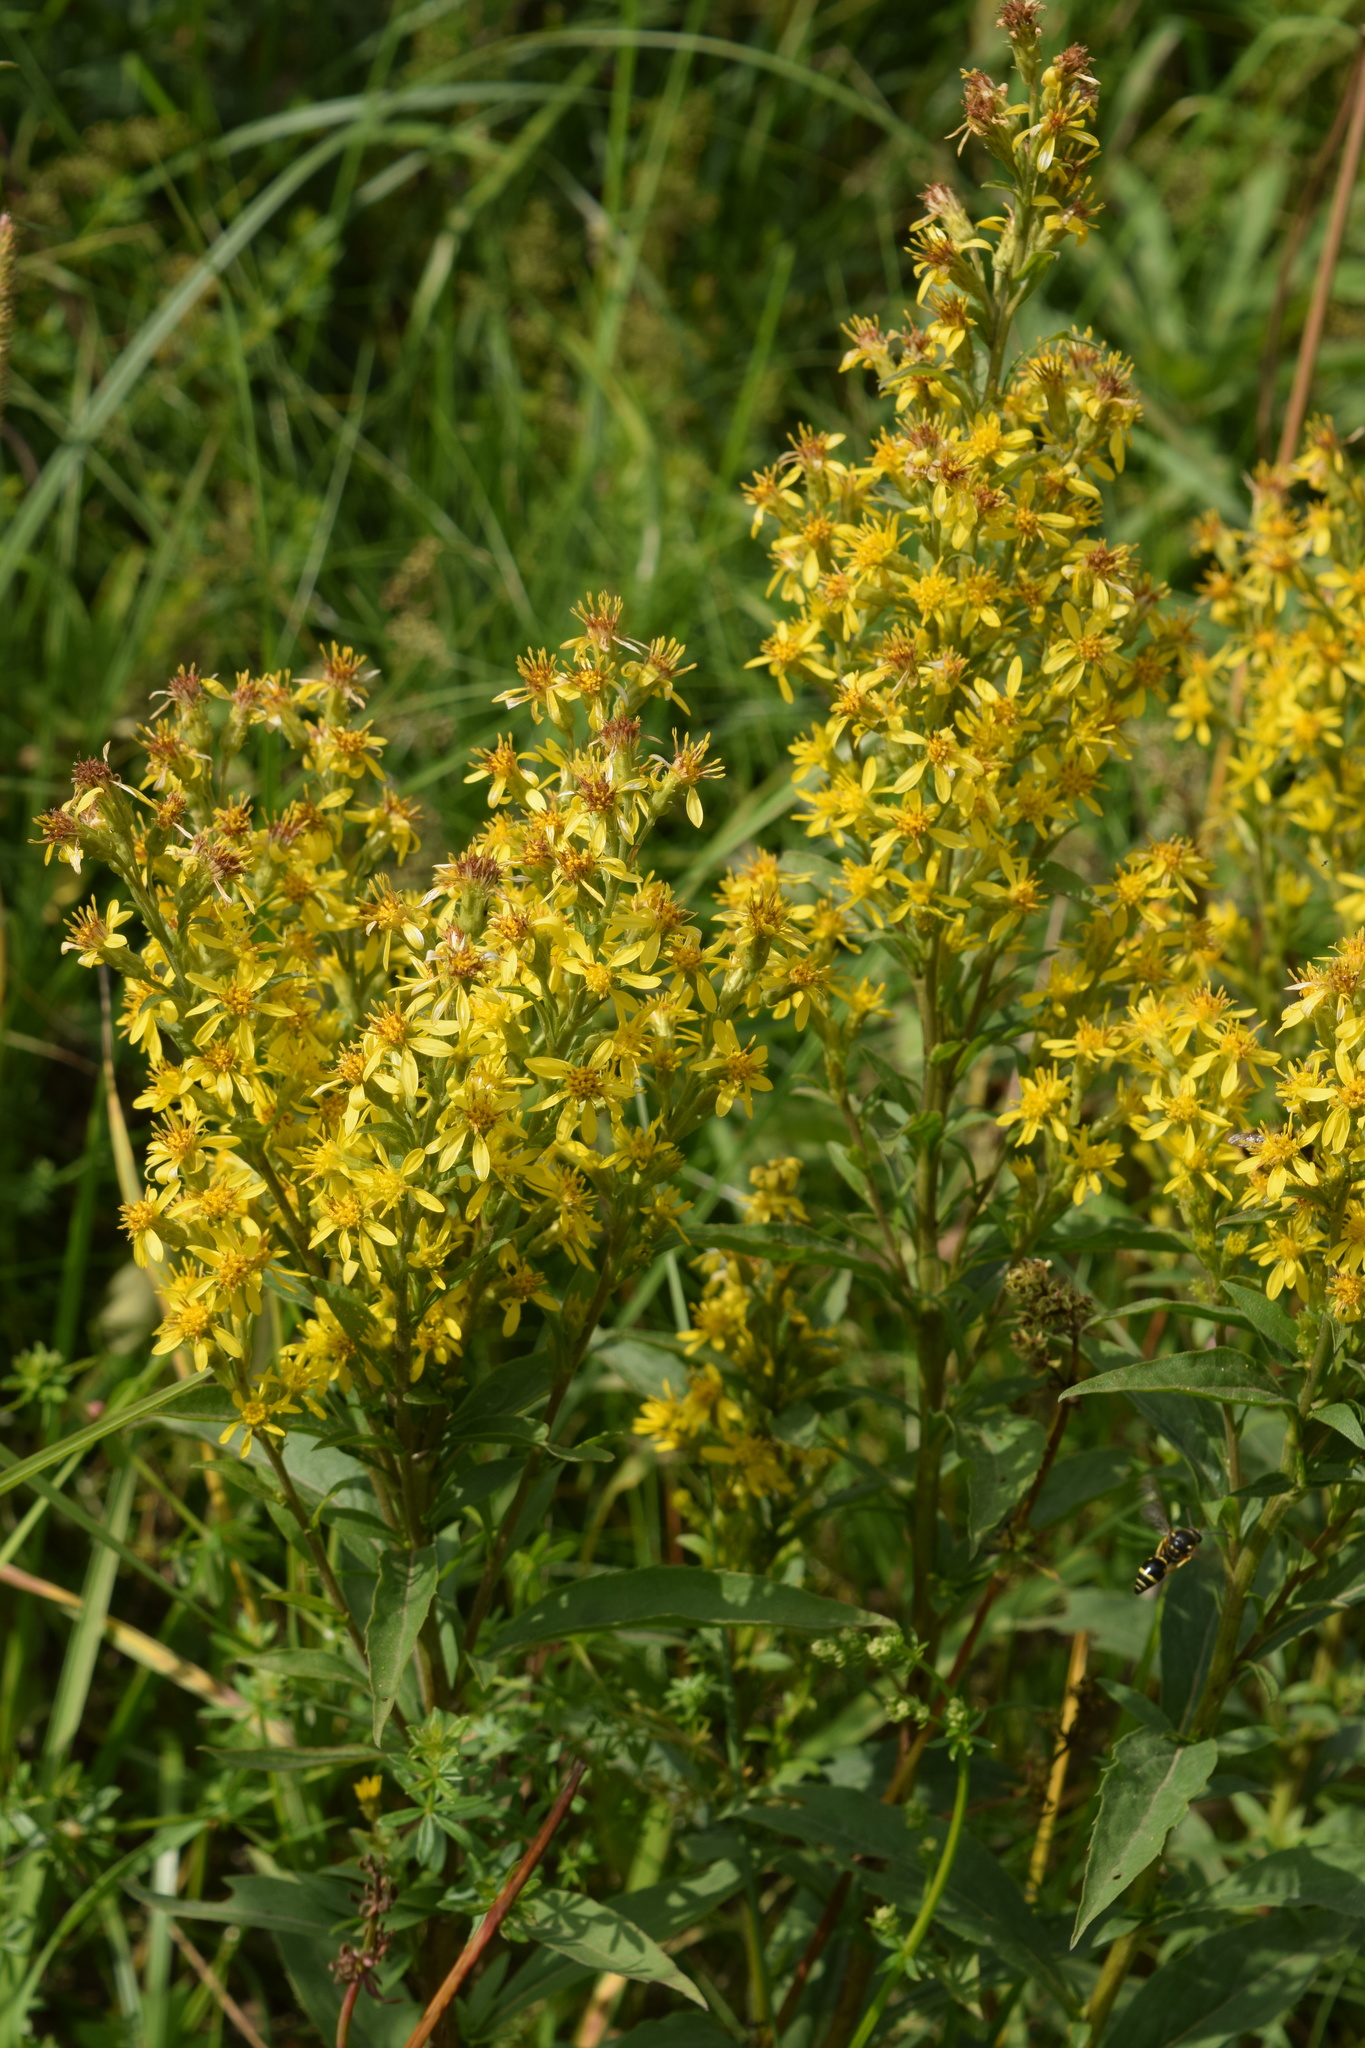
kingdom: Plantae
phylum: Tracheophyta
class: Magnoliopsida
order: Asterales
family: Asteraceae
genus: Solidago
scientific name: Solidago virgaurea
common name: Goldenrod
